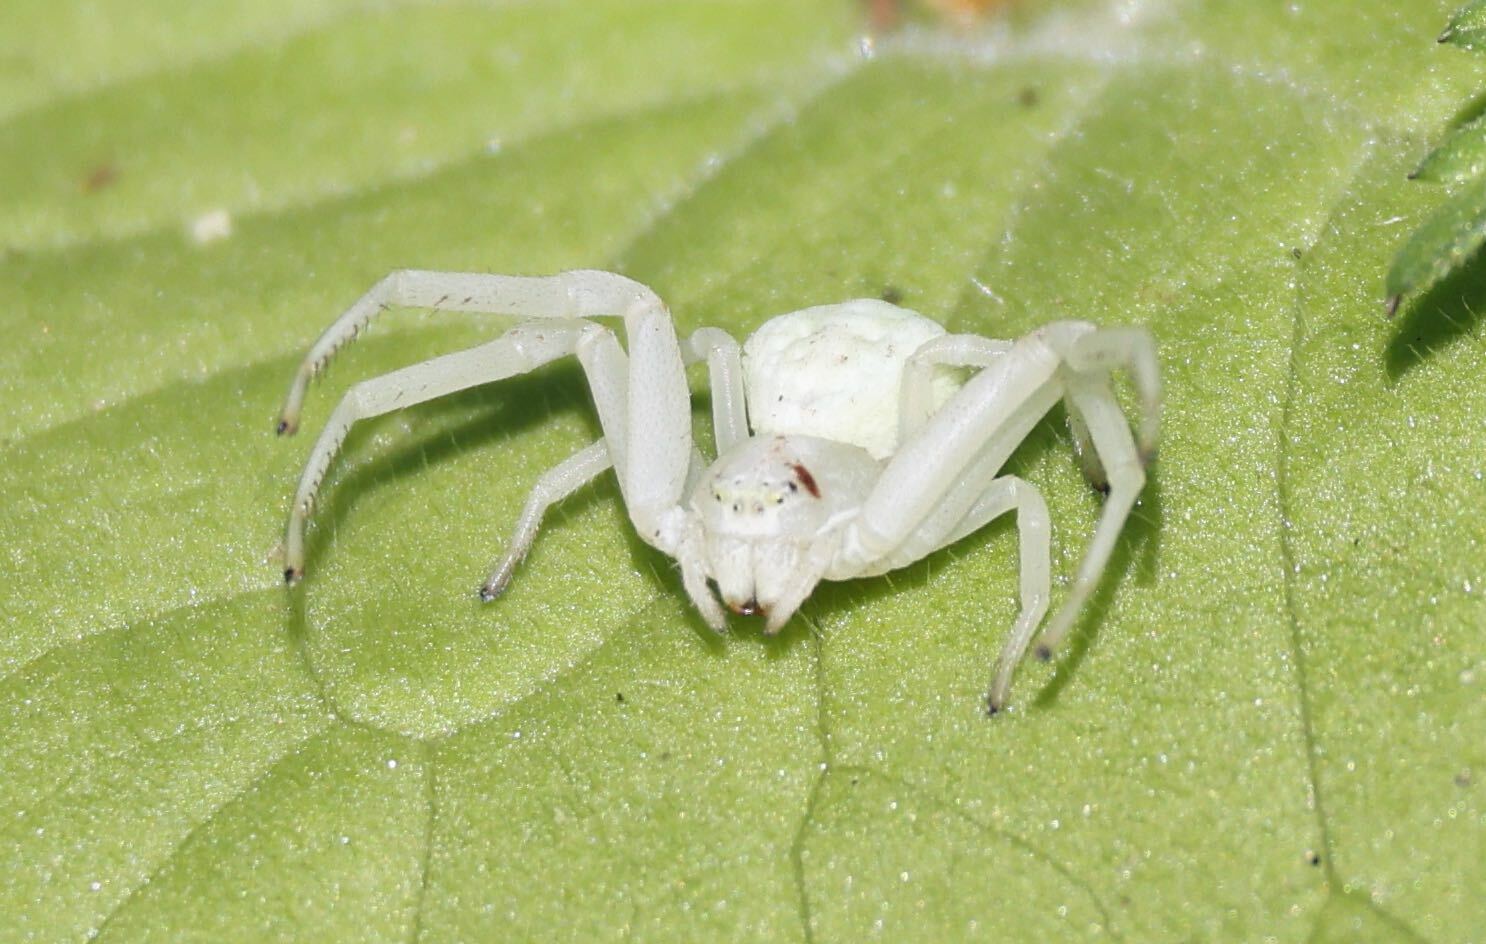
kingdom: Animalia
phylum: Arthropoda
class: Arachnida
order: Araneae
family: Thomisidae
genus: Misumena
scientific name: Misumena vatia
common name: Goldenrod crab spider
